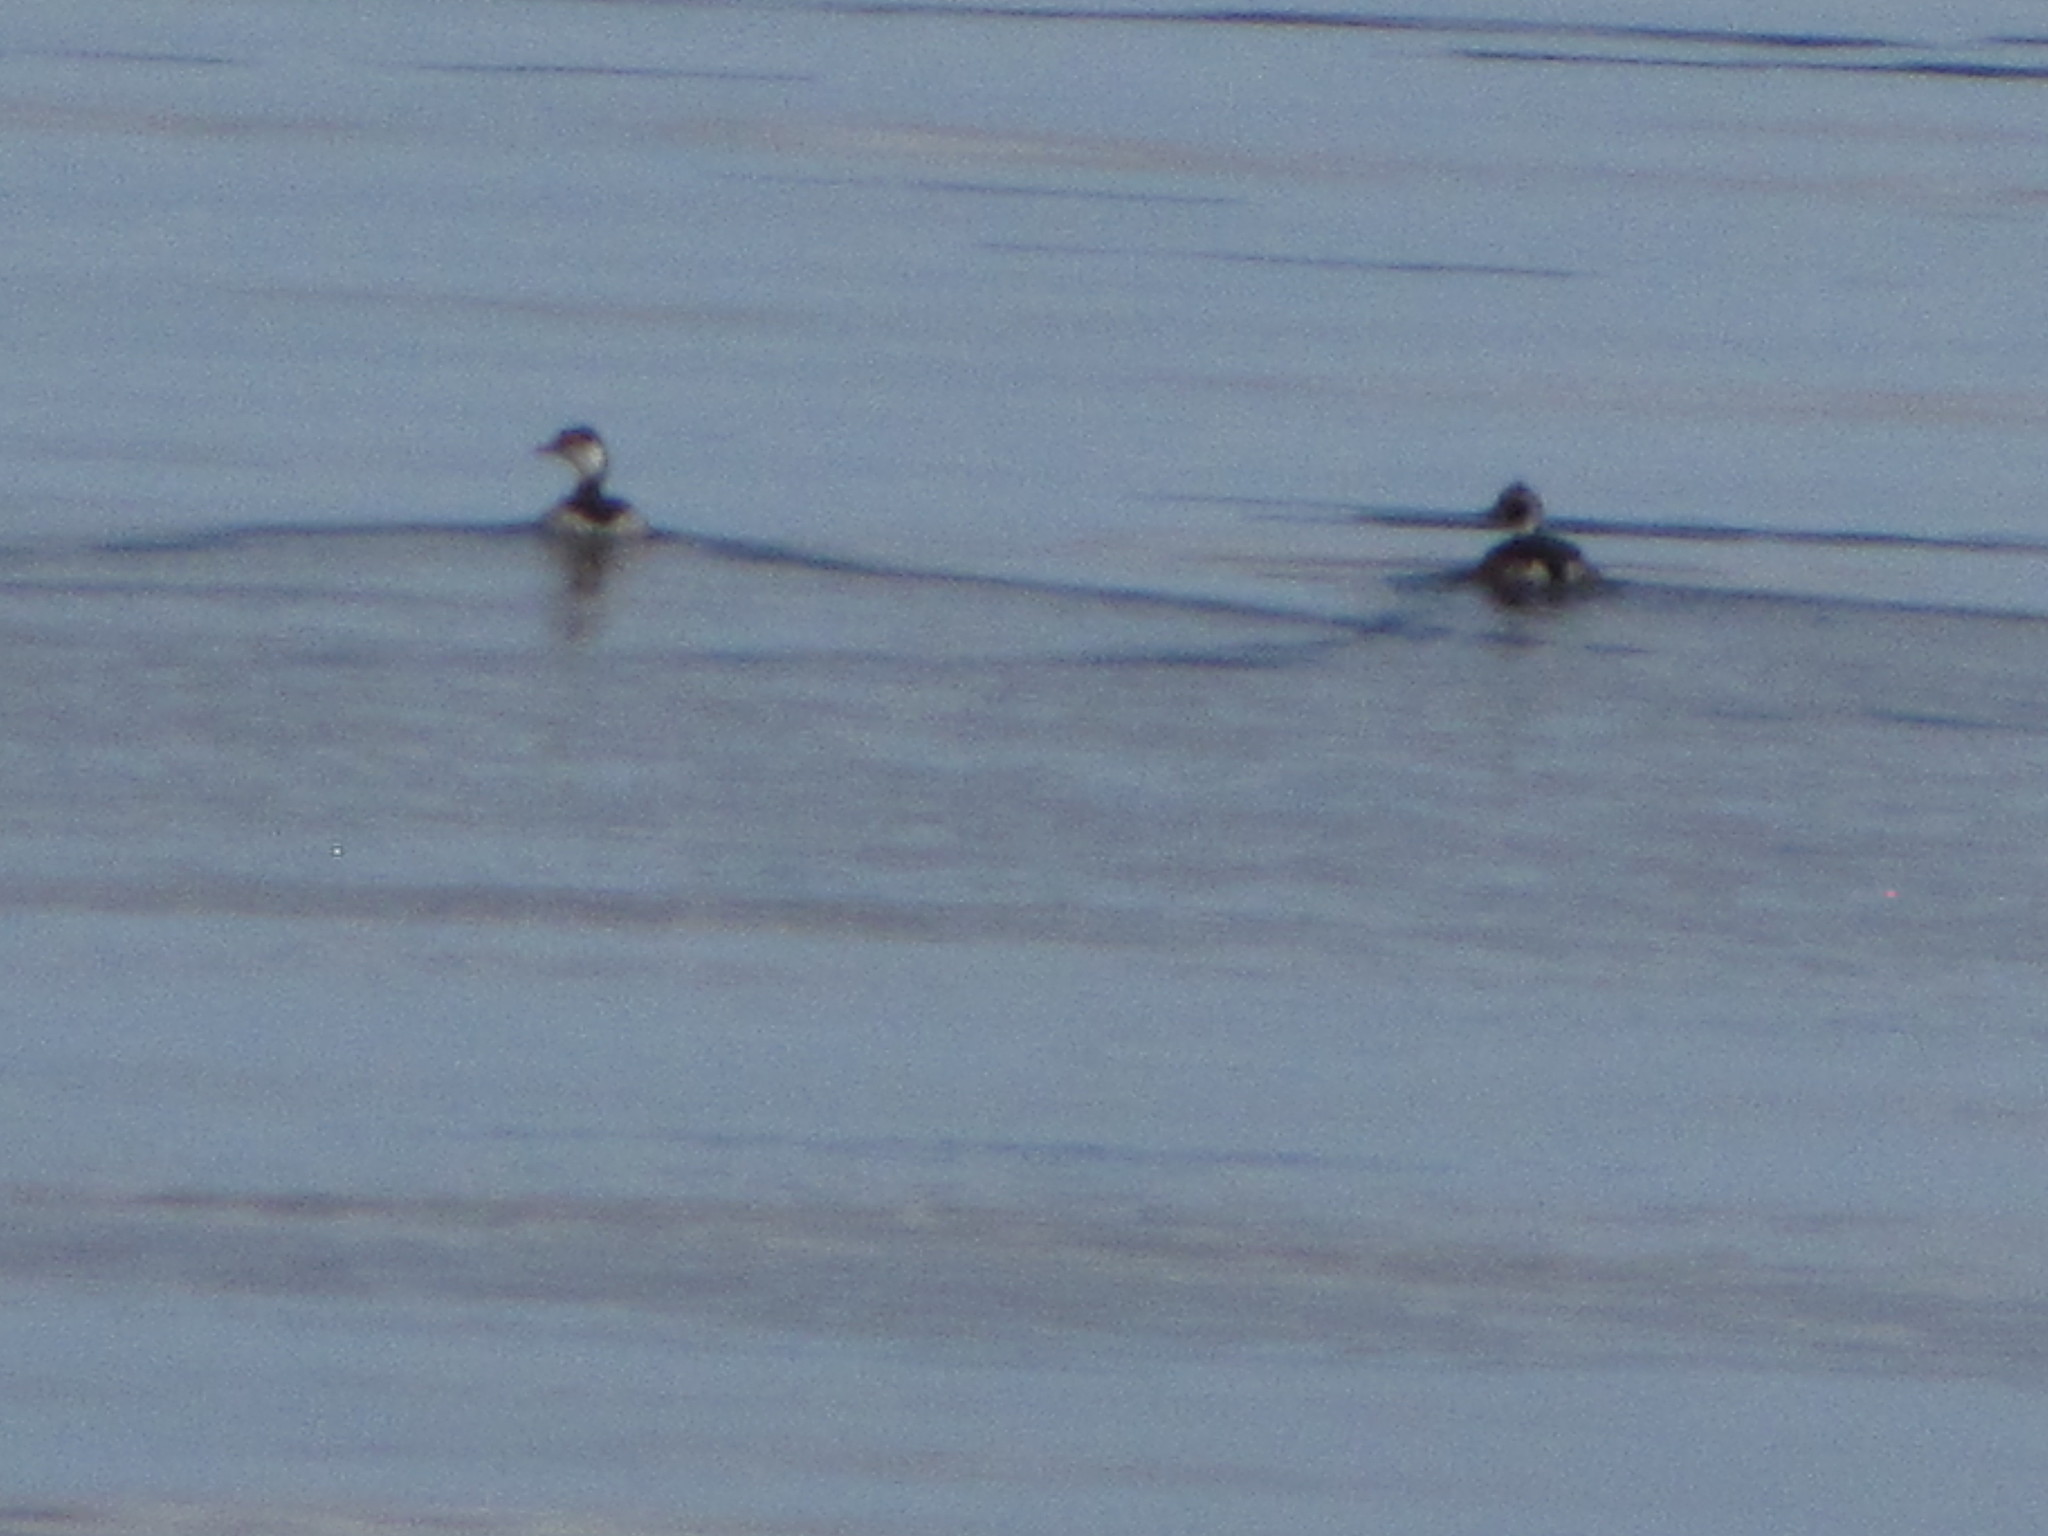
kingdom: Animalia
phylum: Chordata
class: Aves
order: Podicipediformes
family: Podicipedidae
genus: Podiceps
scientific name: Podiceps auritus
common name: Horned grebe
